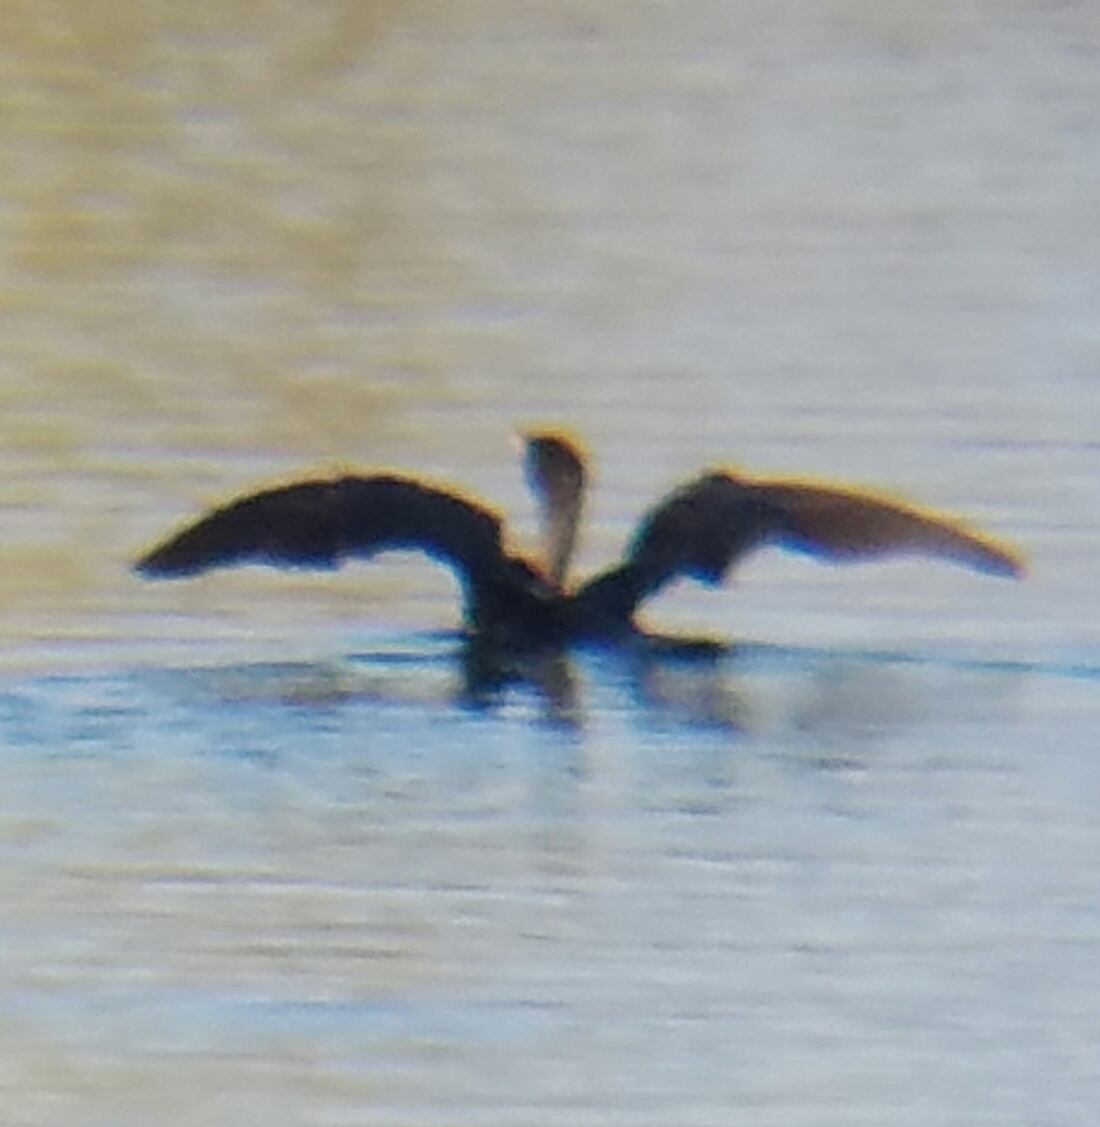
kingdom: Animalia
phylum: Chordata
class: Aves
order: Suliformes
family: Phalacrocoracidae
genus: Phalacrocorax
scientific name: Phalacrocorax auritus
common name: Double-crested cormorant
